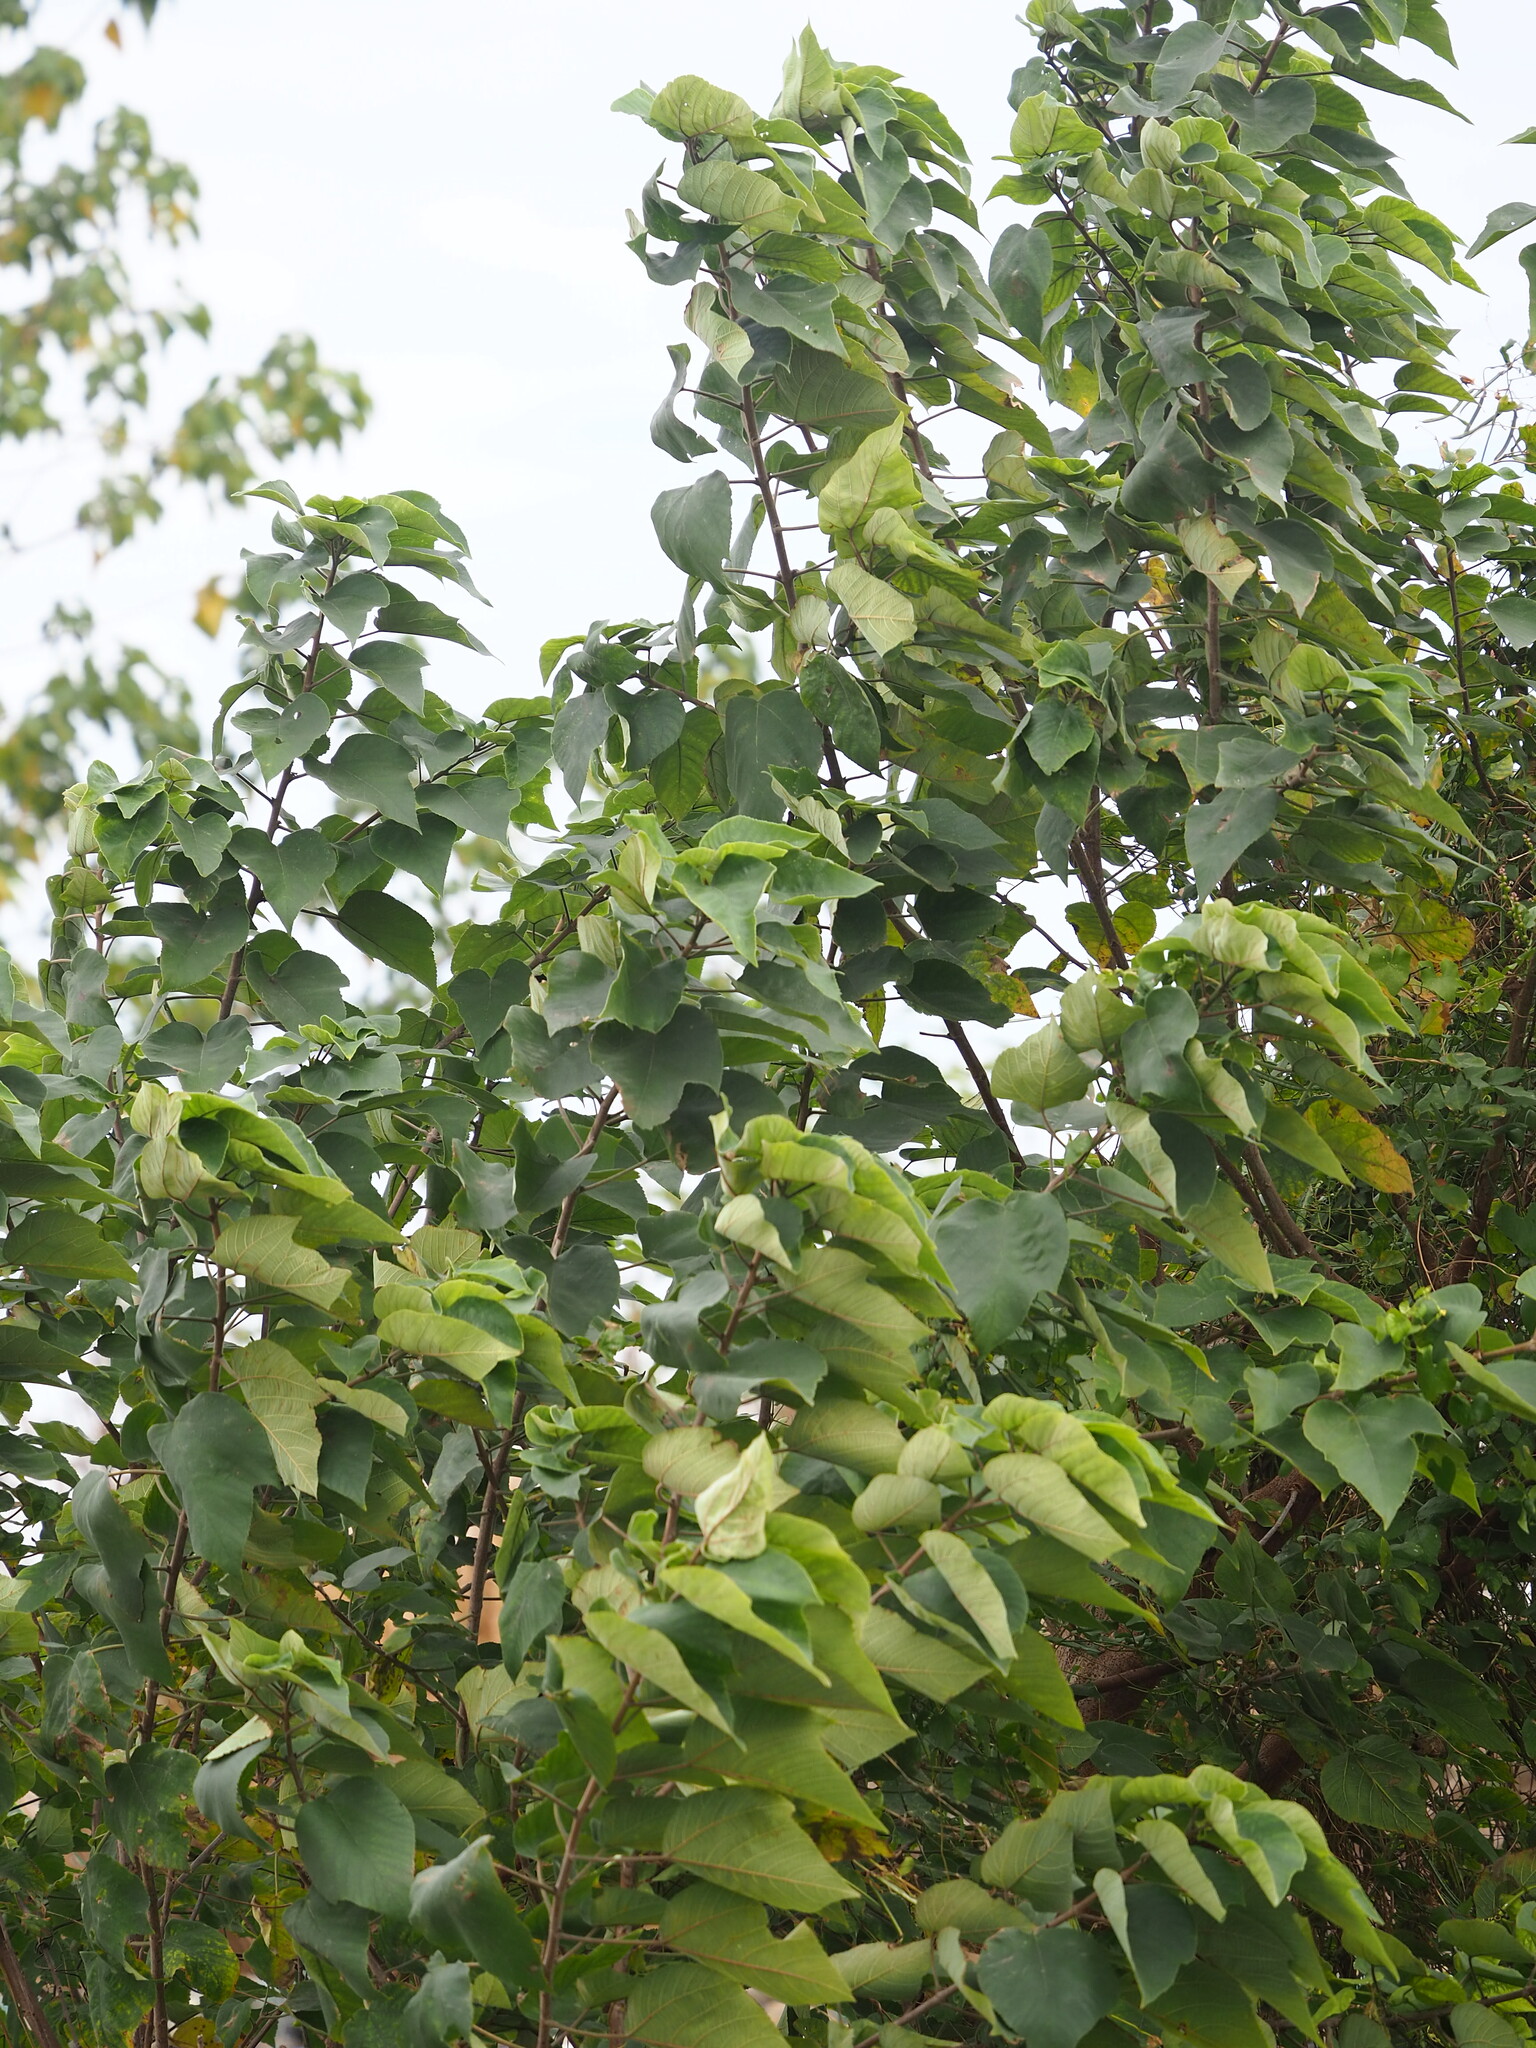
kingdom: Plantae
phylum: Tracheophyta
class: Magnoliopsida
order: Rosales
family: Moraceae
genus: Broussonetia
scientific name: Broussonetia papyrifera
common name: Paper mulberry
